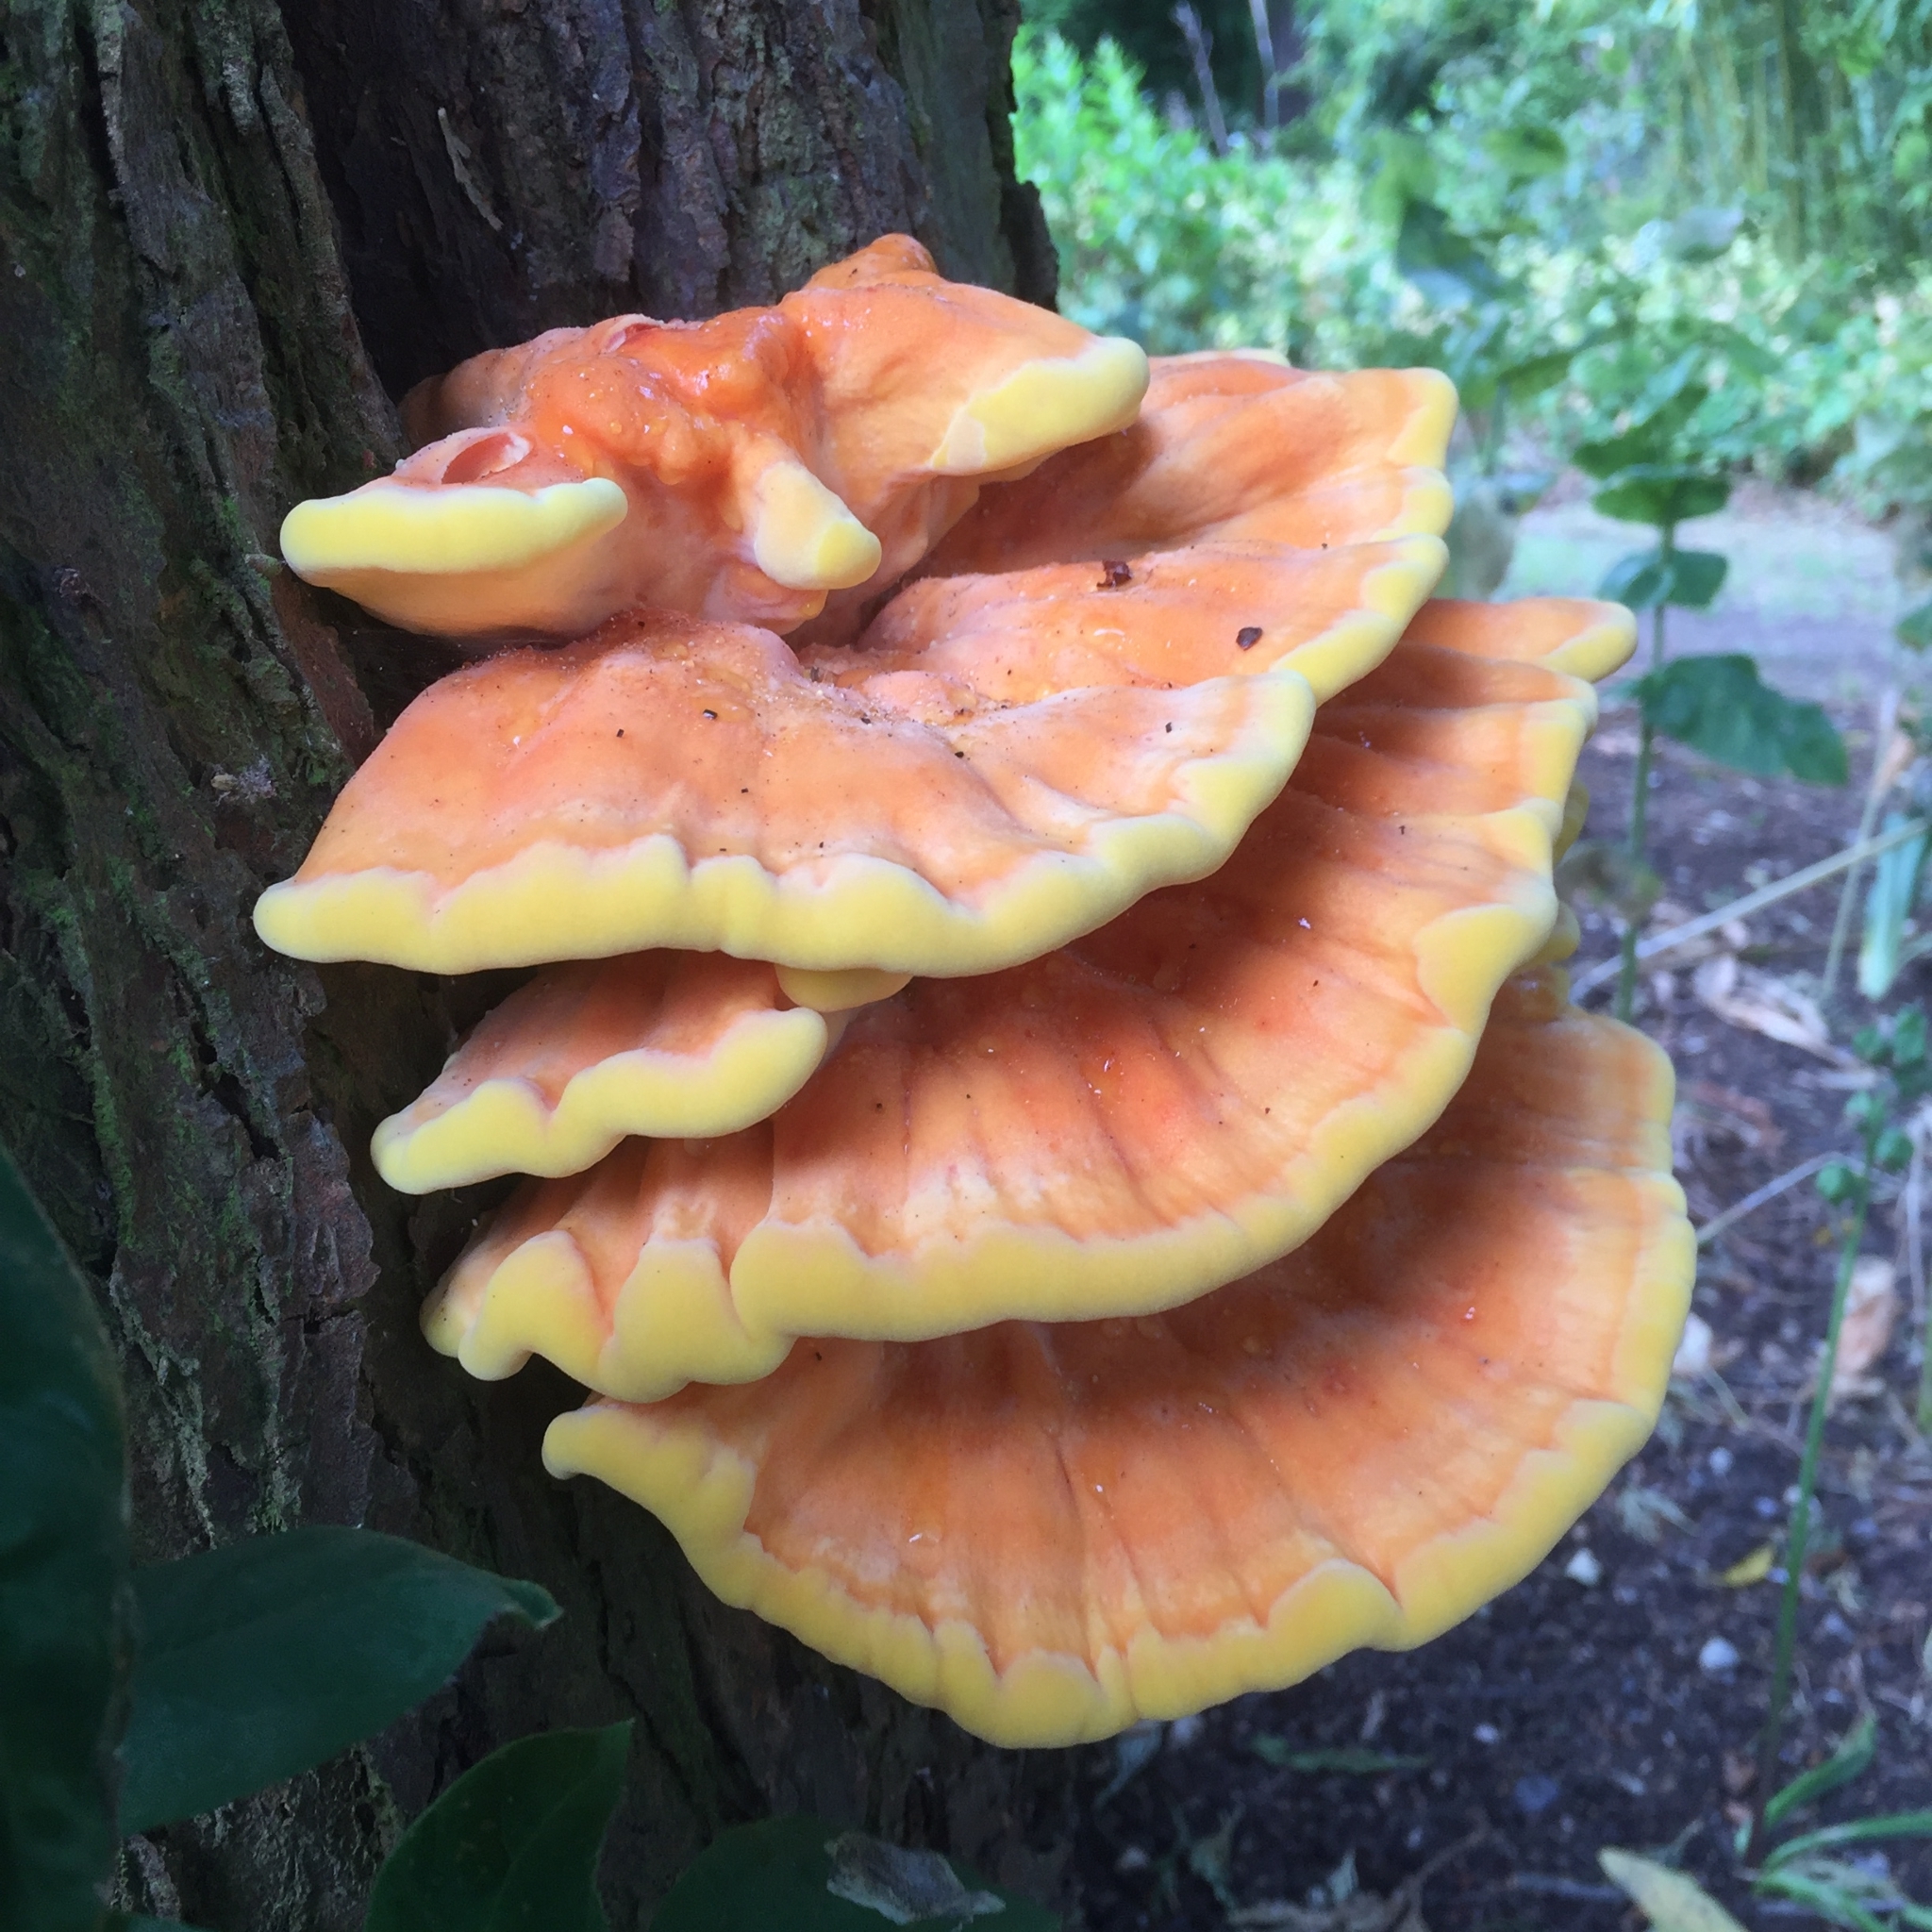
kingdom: Fungi
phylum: Basidiomycota
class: Agaricomycetes
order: Polyporales
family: Laetiporaceae
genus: Laetiporus
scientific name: Laetiporus sulphureus
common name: Chicken of the woods
